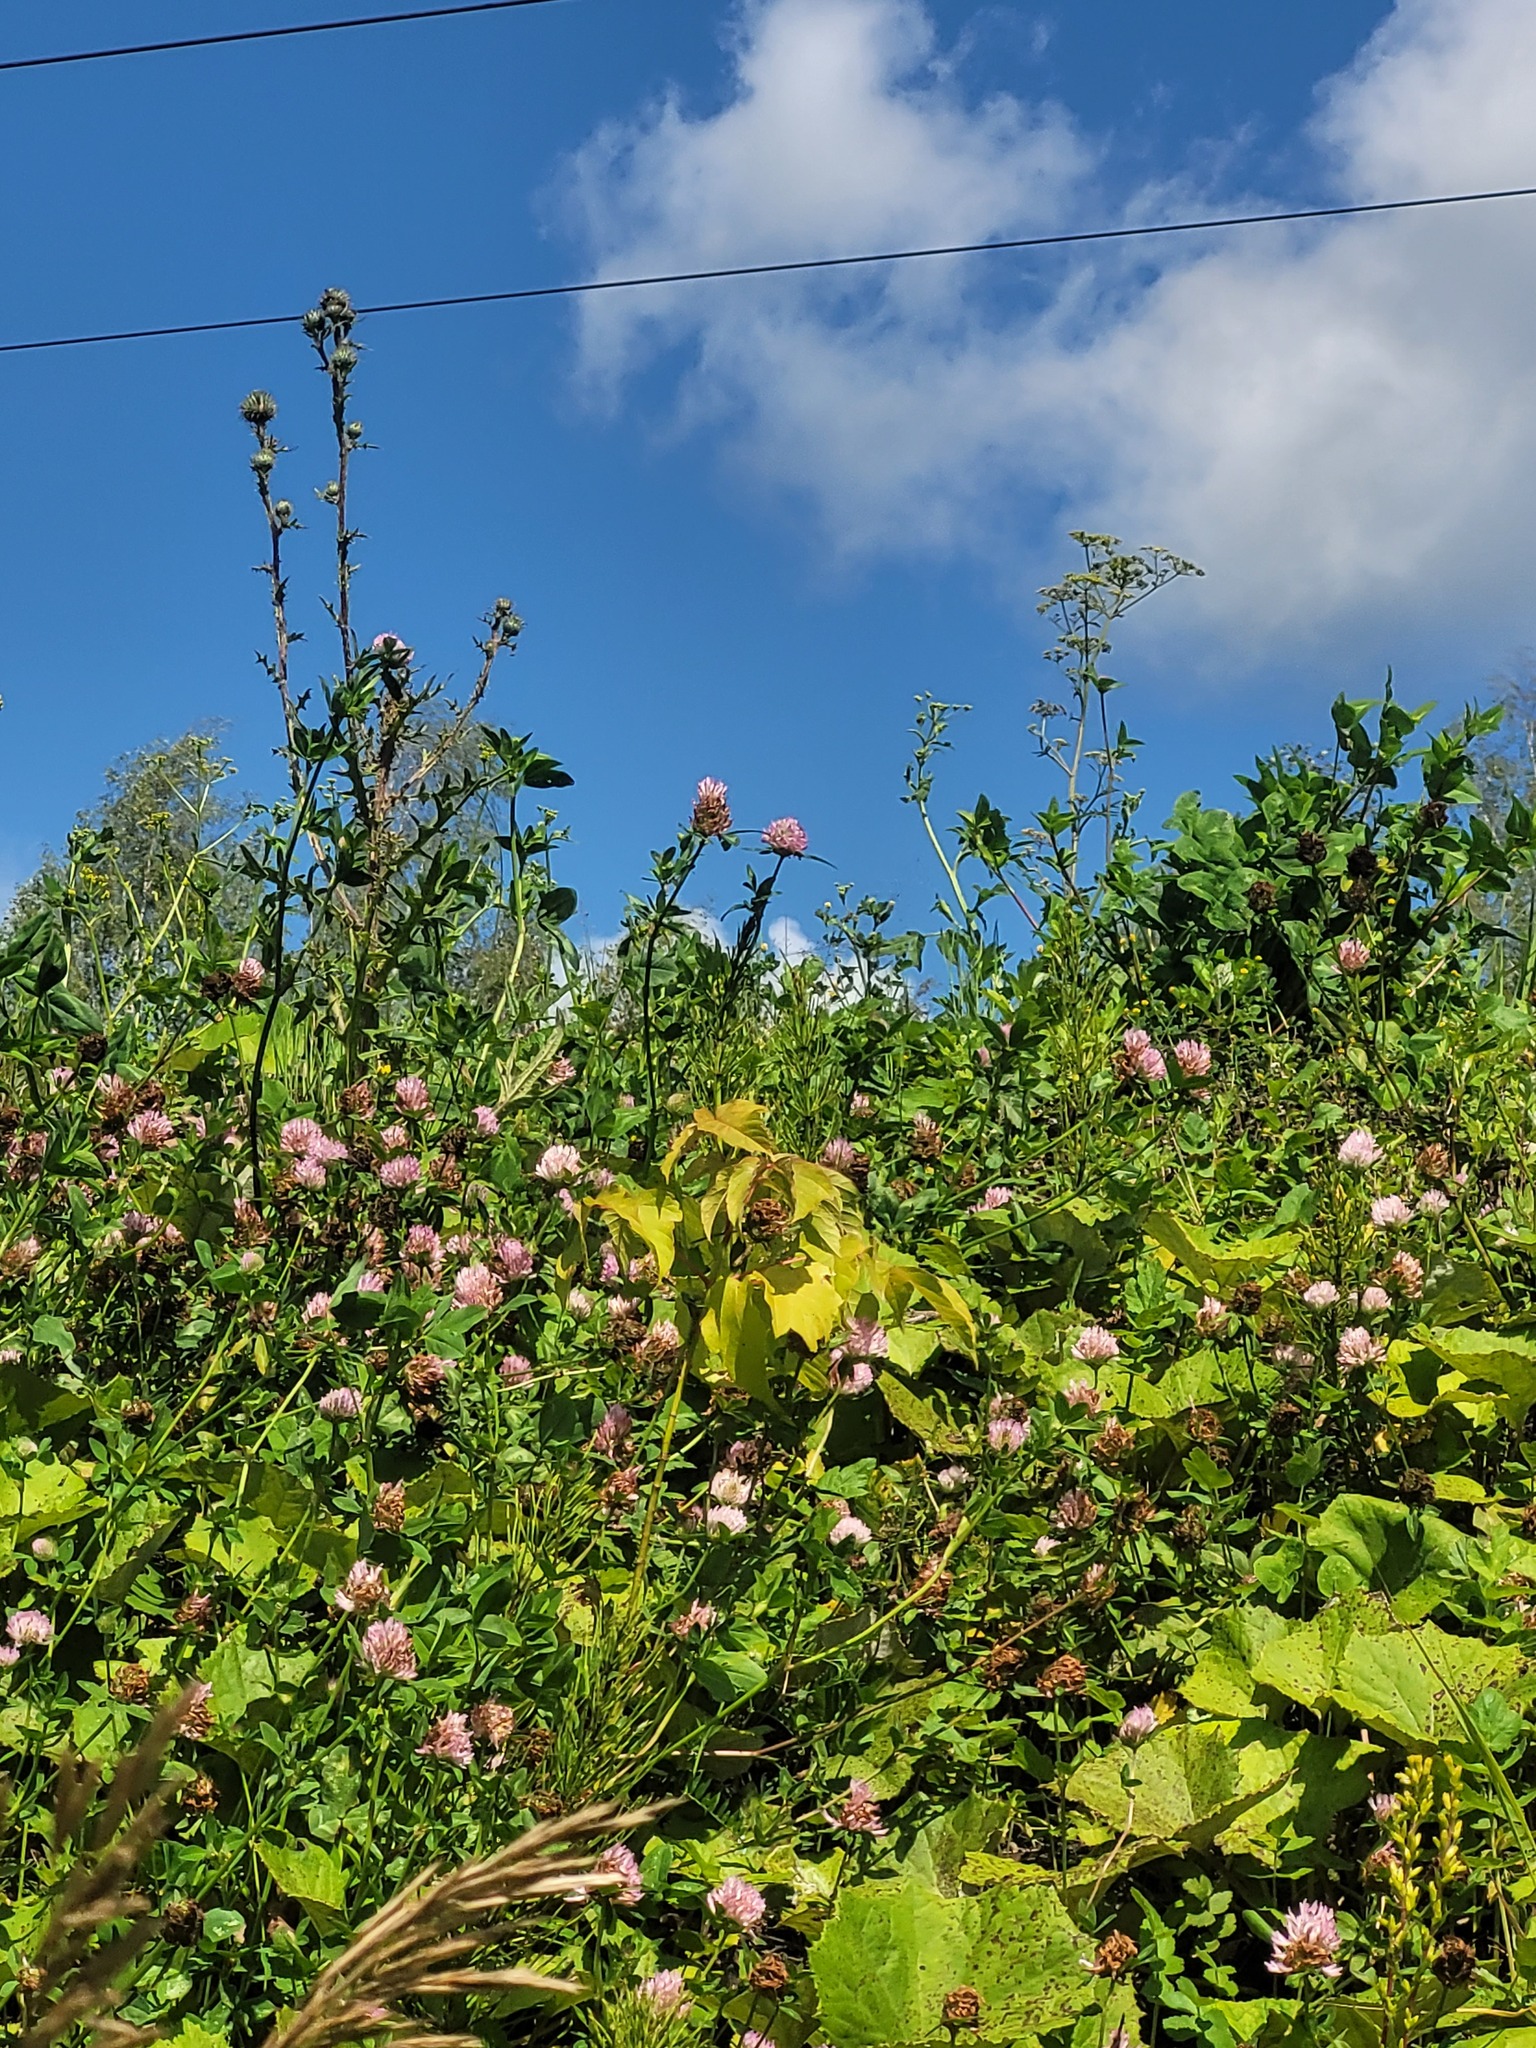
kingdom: Plantae
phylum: Tracheophyta
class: Magnoliopsida
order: Sapindales
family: Sapindaceae
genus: Acer
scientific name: Acer negundo
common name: Ashleaf maple
